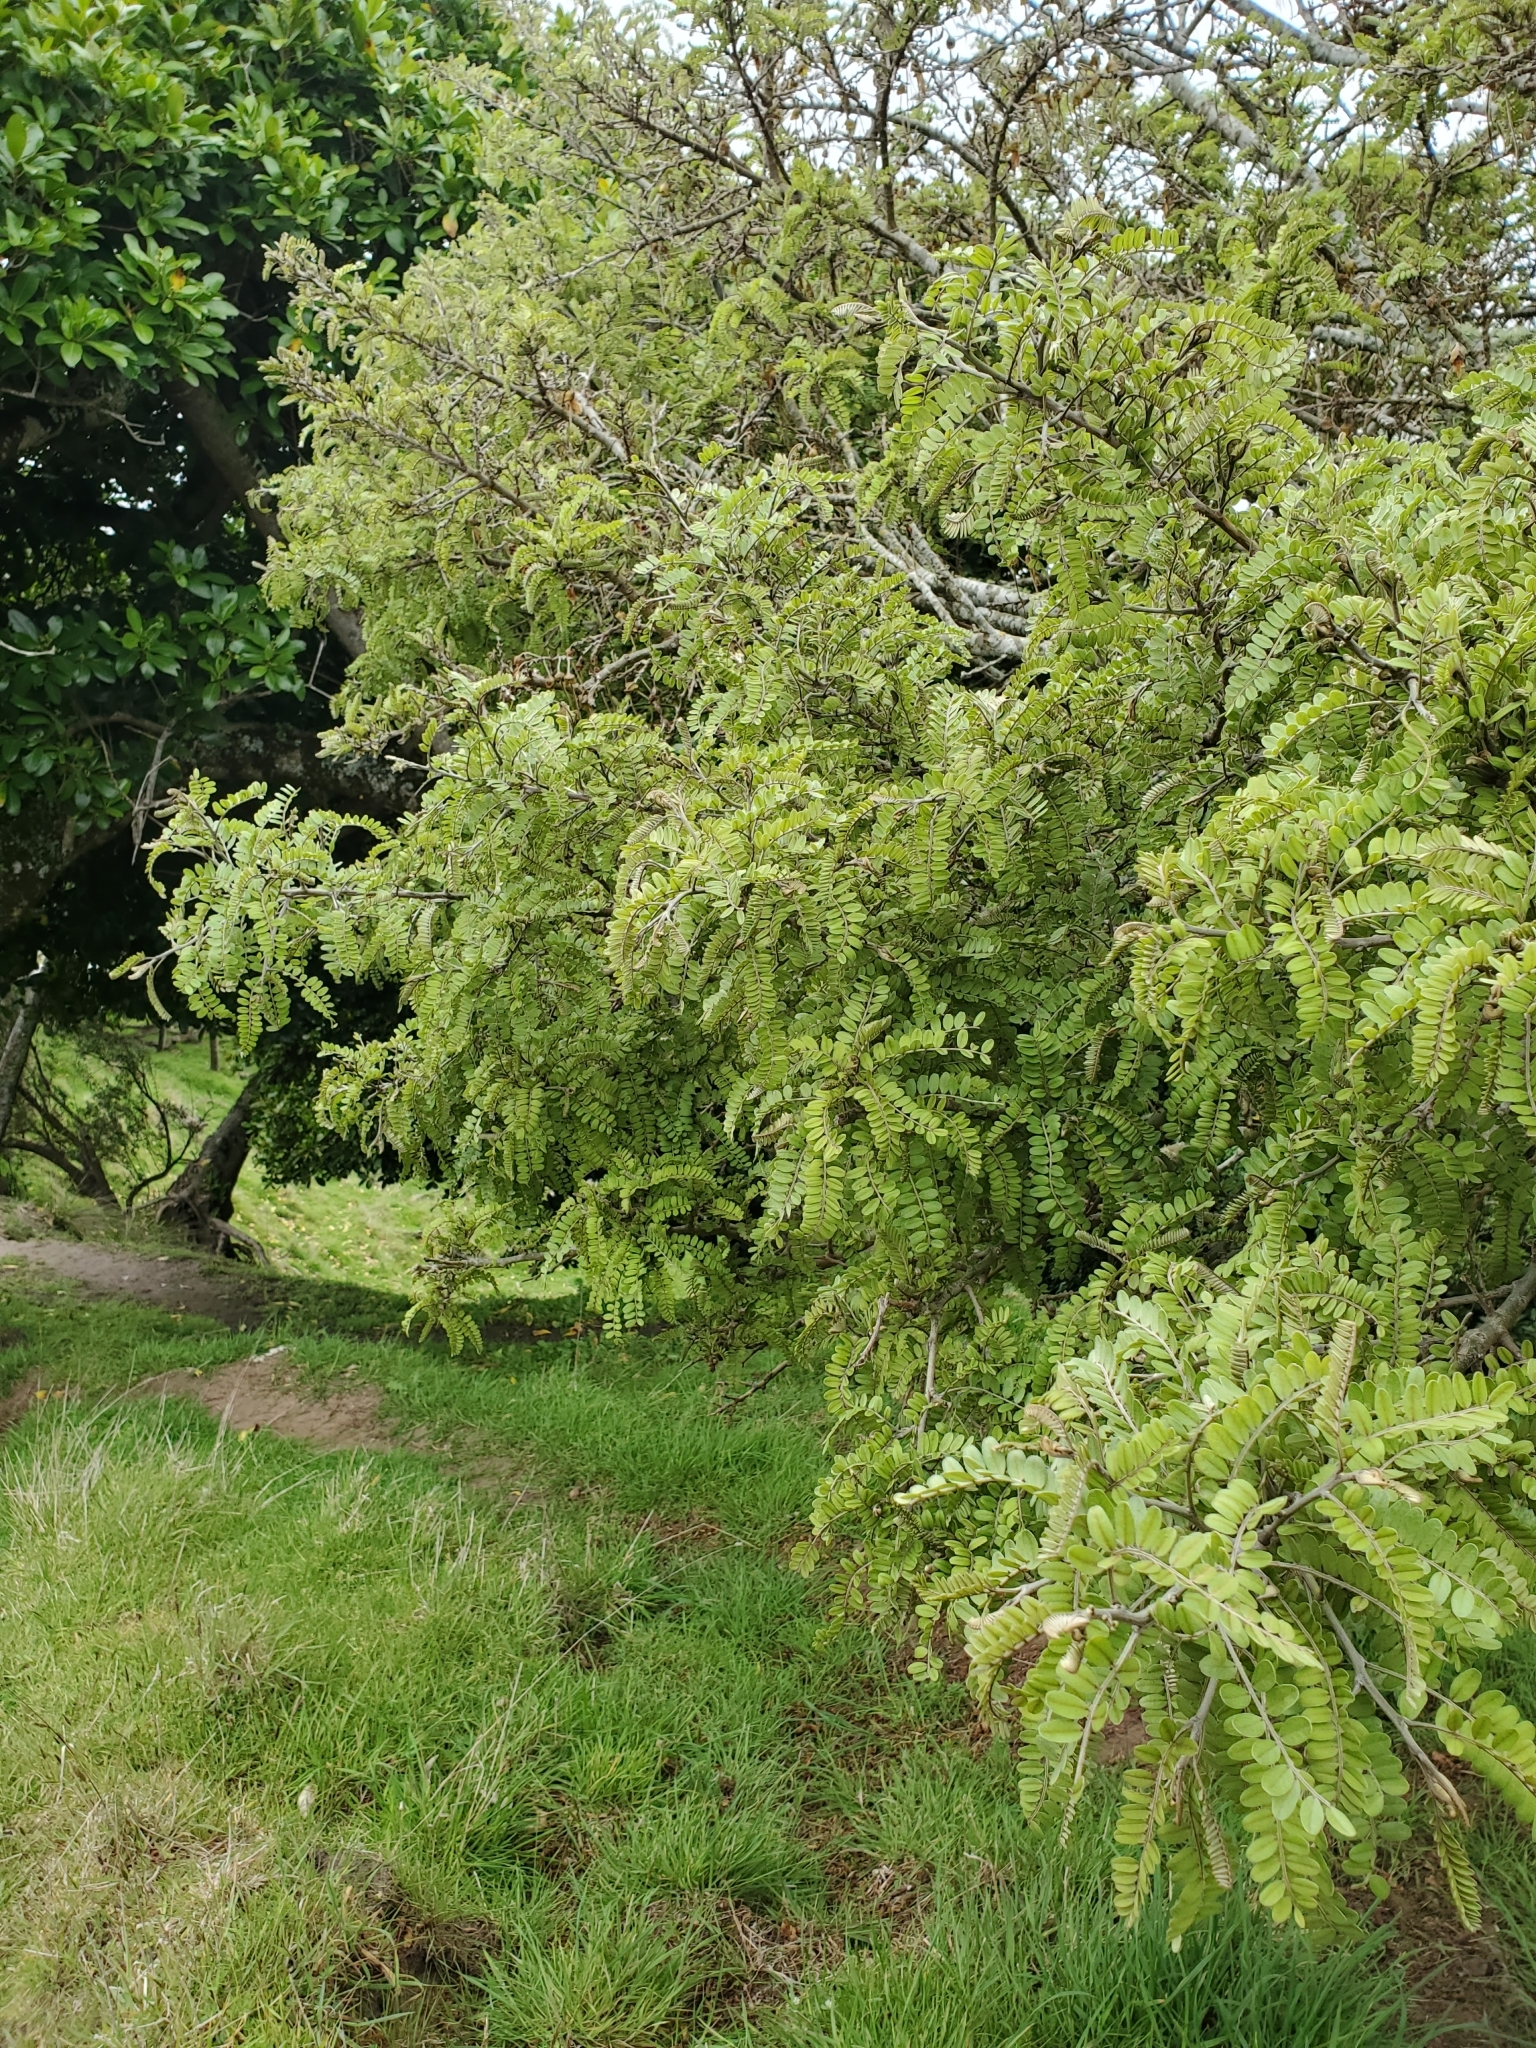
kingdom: Plantae
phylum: Tracheophyta
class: Magnoliopsida
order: Fabales
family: Fabaceae
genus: Sophora
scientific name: Sophora chathamica
